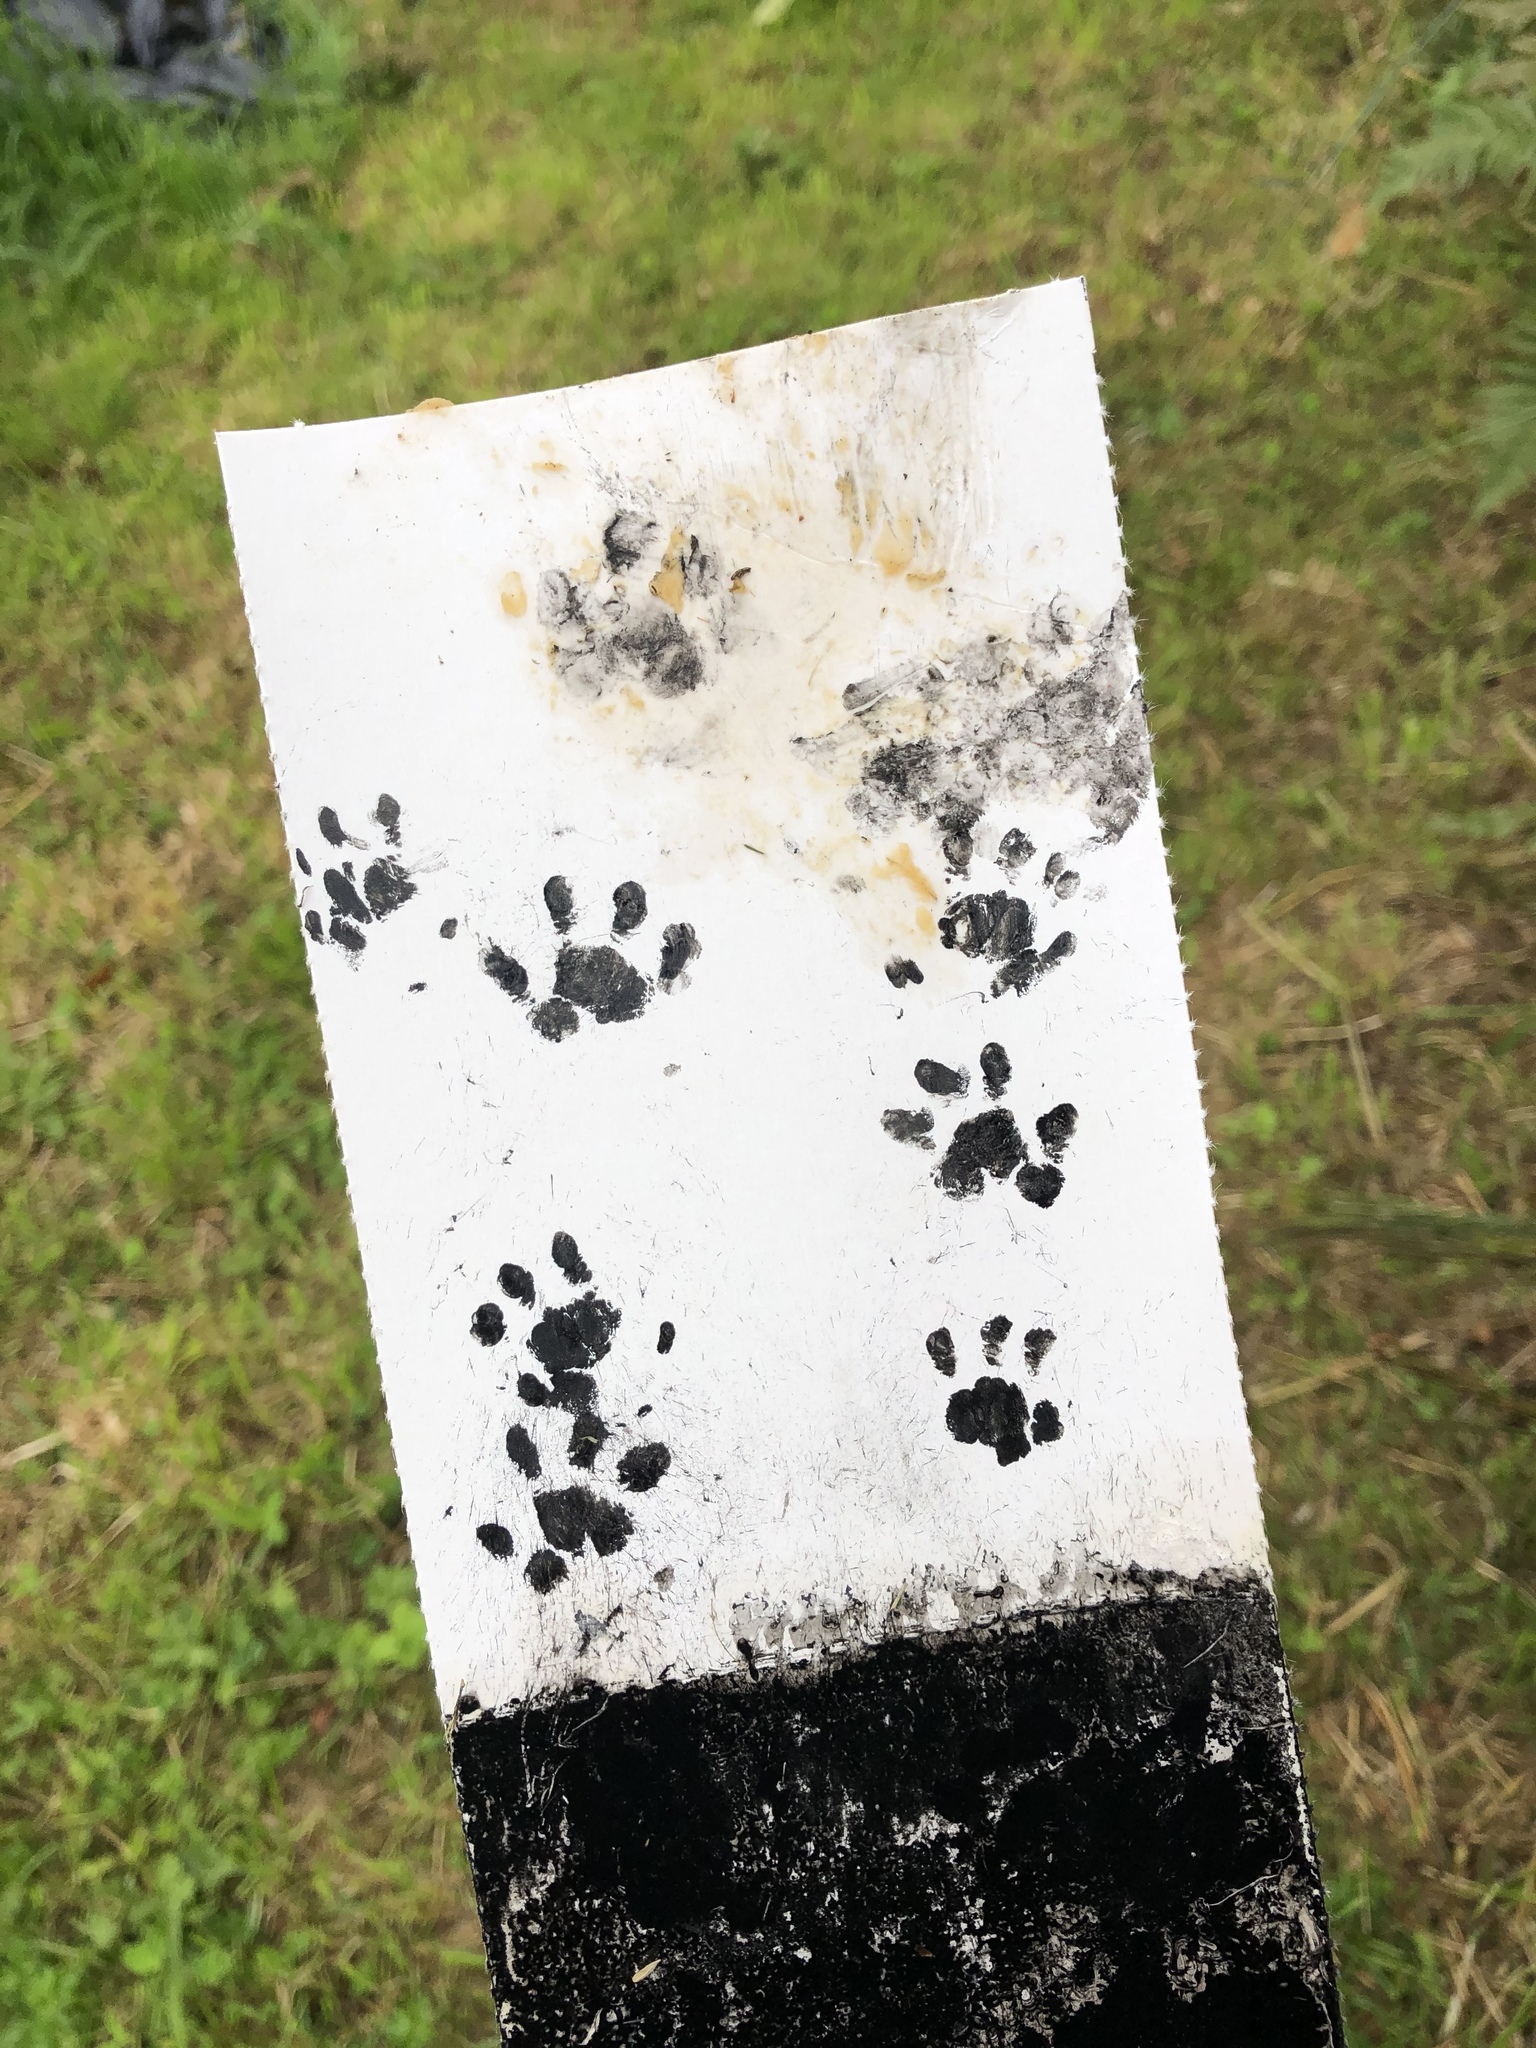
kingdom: Animalia
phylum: Chordata
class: Mammalia
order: Erinaceomorpha
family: Erinaceidae
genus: Erinaceus
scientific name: Erinaceus europaeus
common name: West european hedgehog
